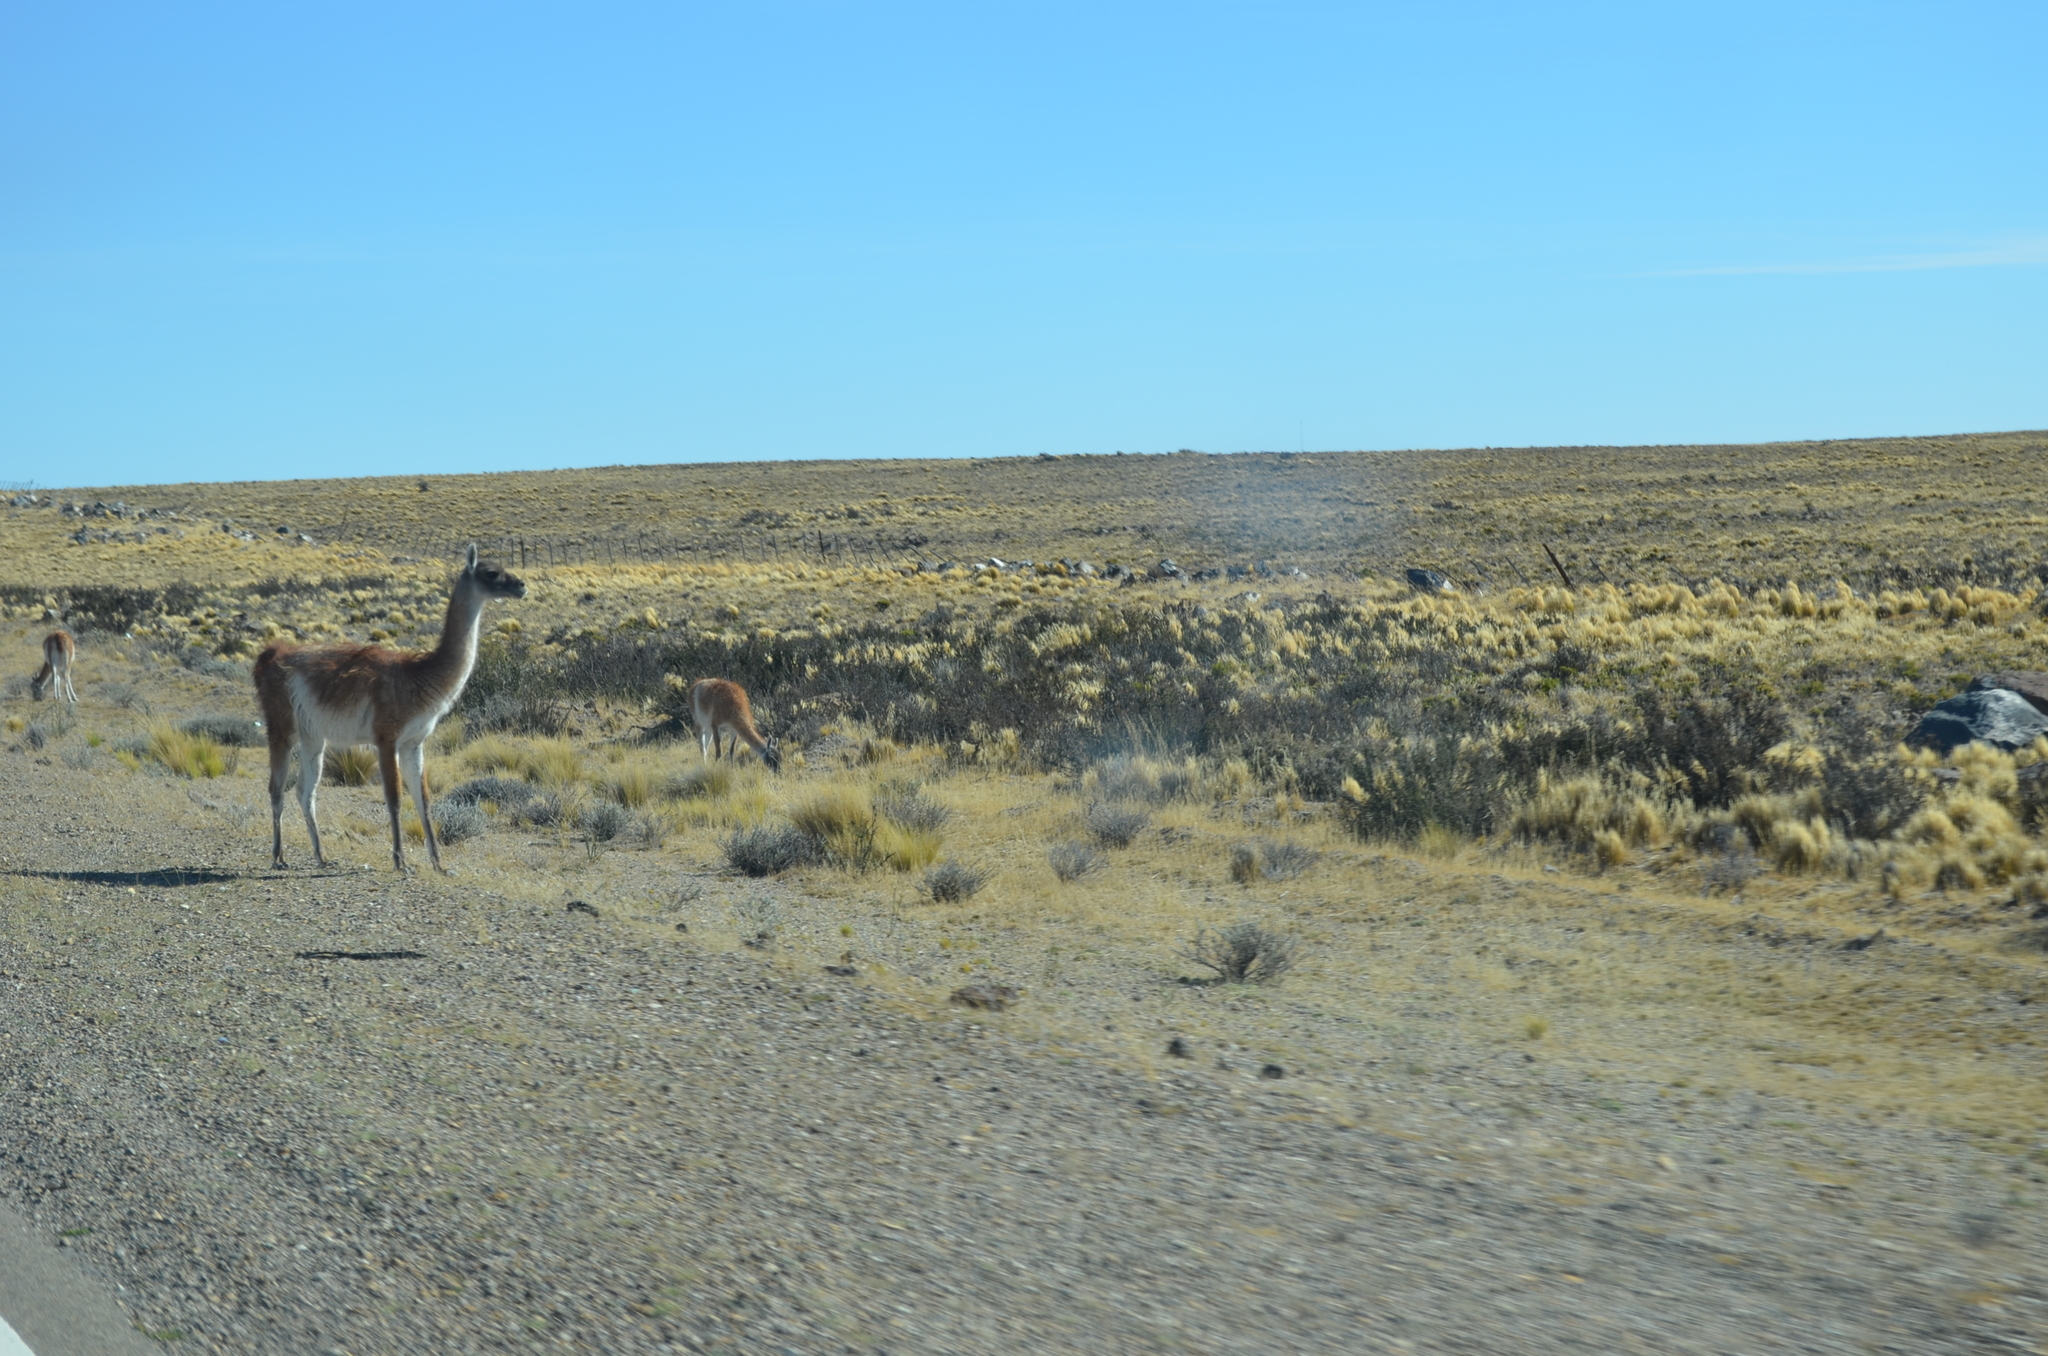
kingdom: Animalia
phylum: Chordata
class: Mammalia
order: Artiodactyla
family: Camelidae
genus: Lama
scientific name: Lama glama
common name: Llama
